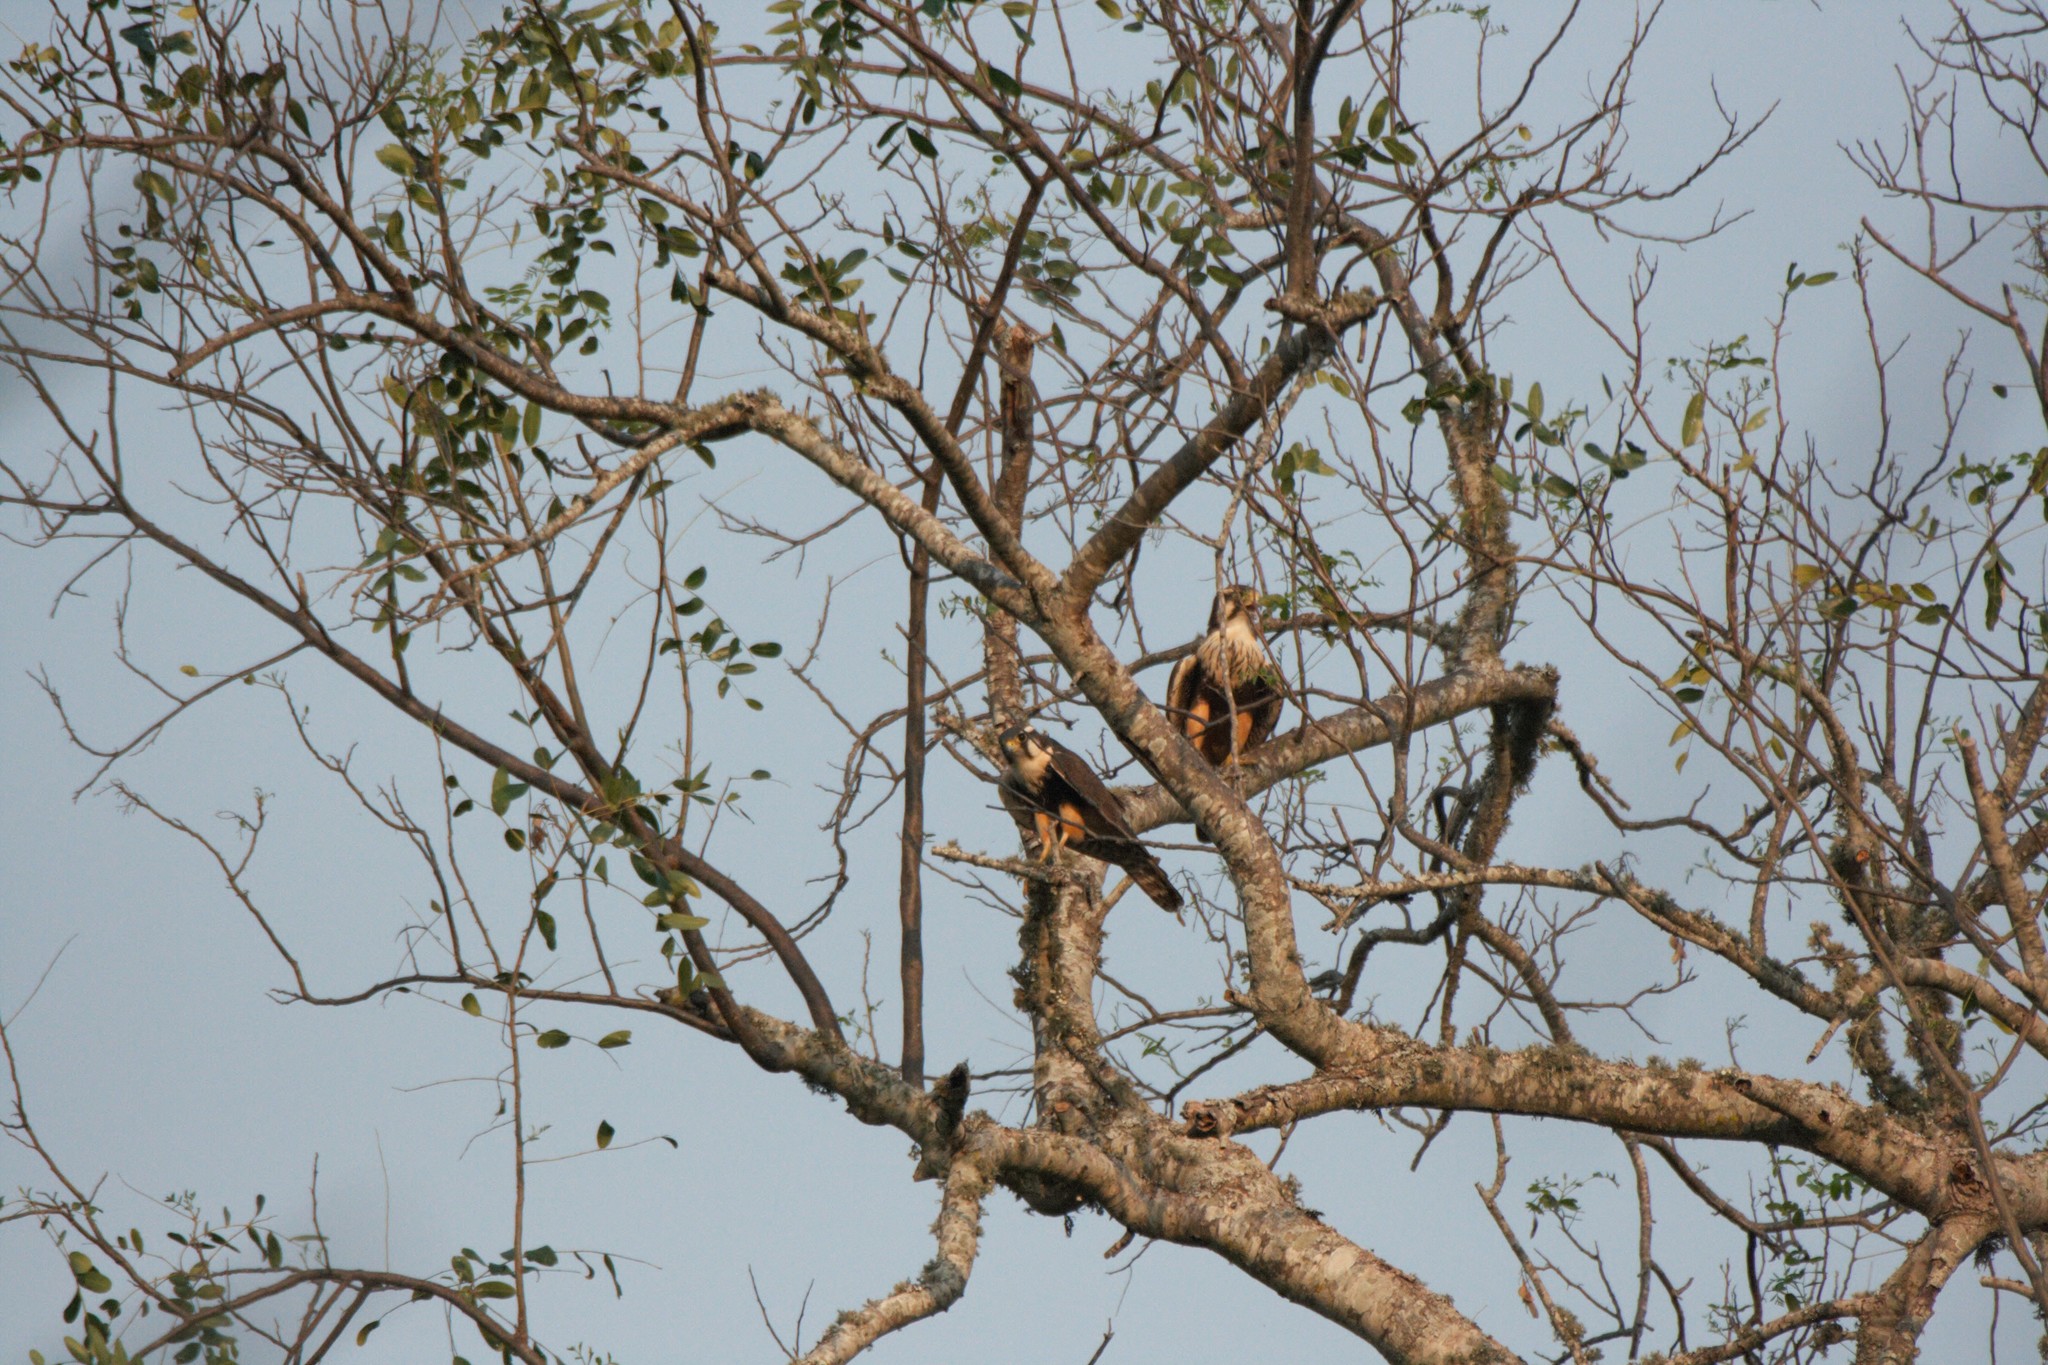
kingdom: Animalia
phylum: Chordata
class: Aves
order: Falconiformes
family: Falconidae
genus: Falco
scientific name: Falco femoralis
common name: Aplomado falcon
